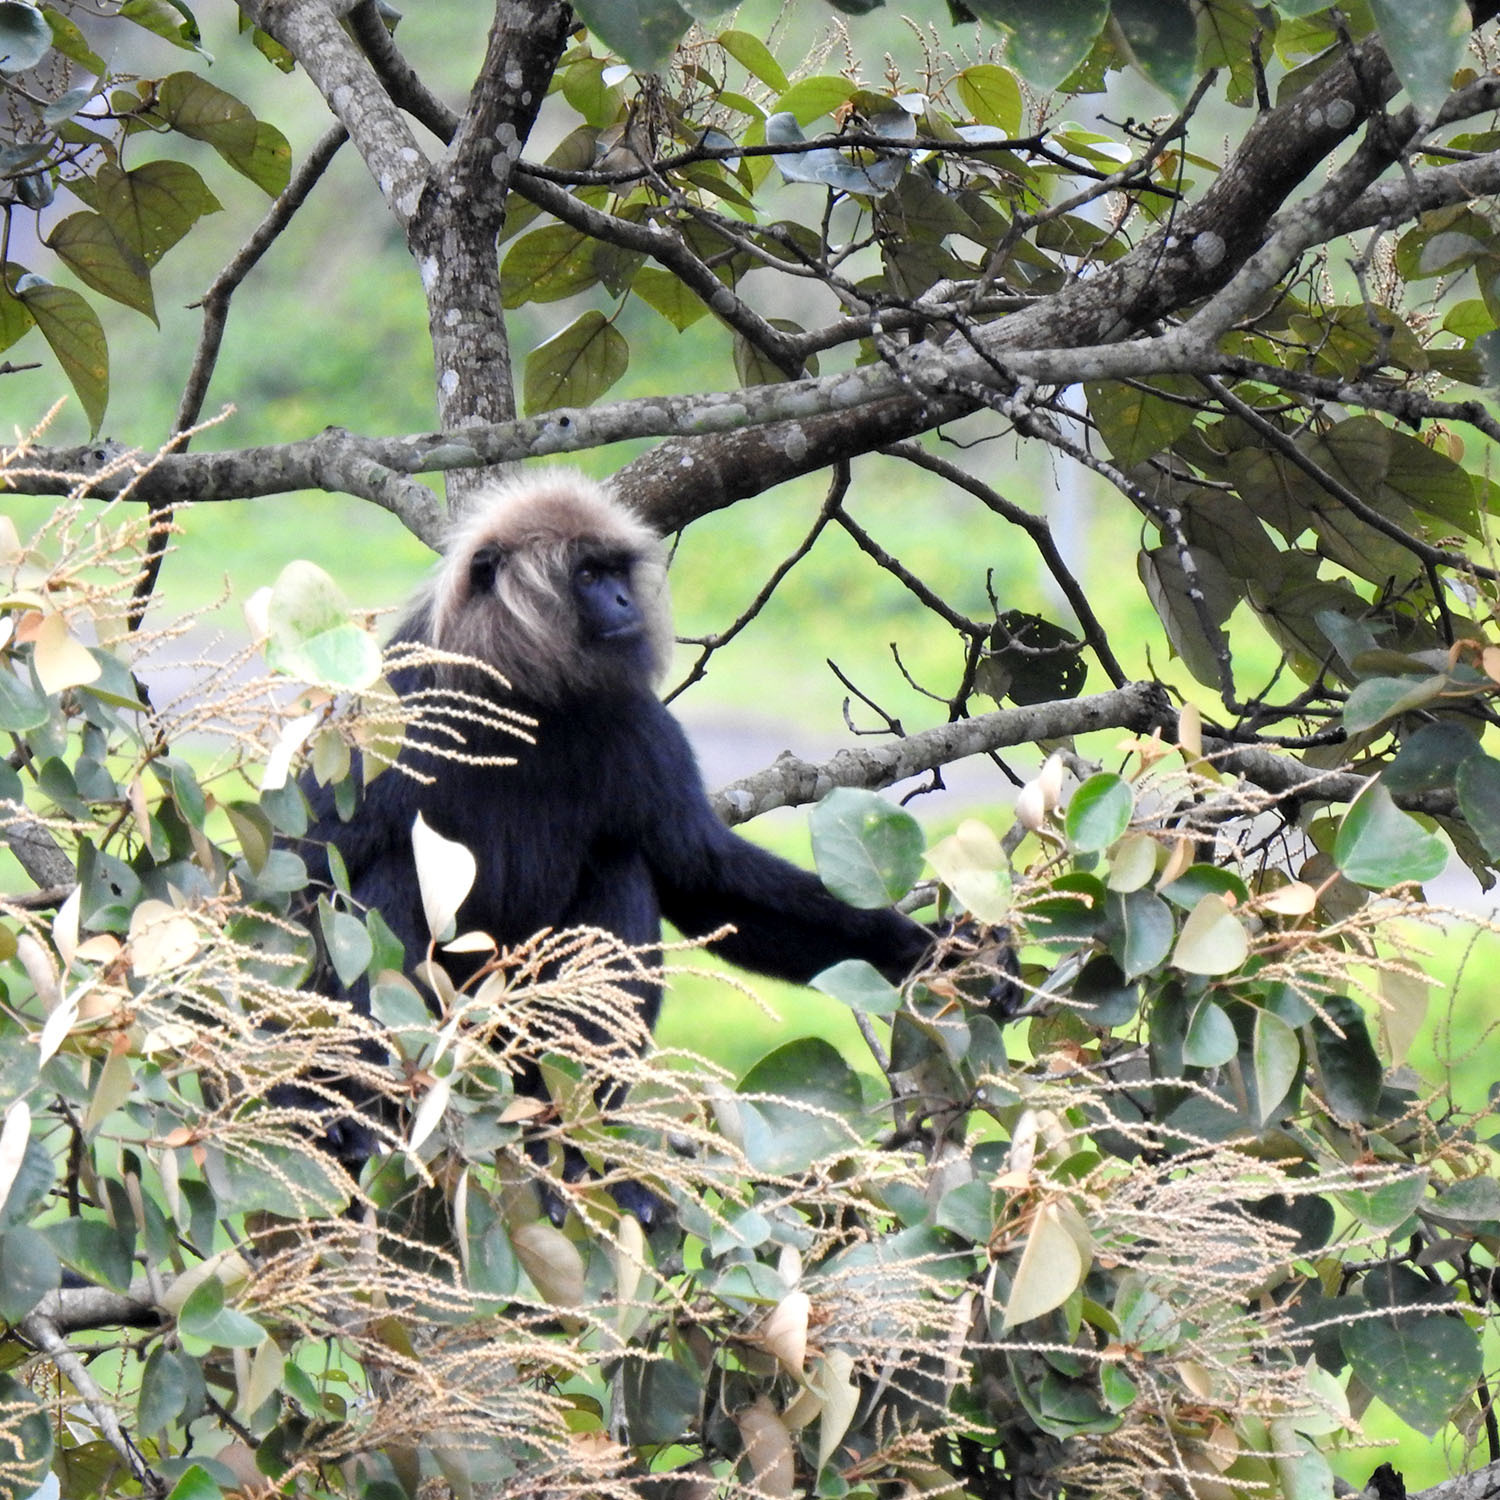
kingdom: Animalia
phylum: Chordata
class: Mammalia
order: Primates
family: Cercopithecidae
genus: Semnopithecus
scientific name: Semnopithecus johnii
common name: Nilgiri langur
